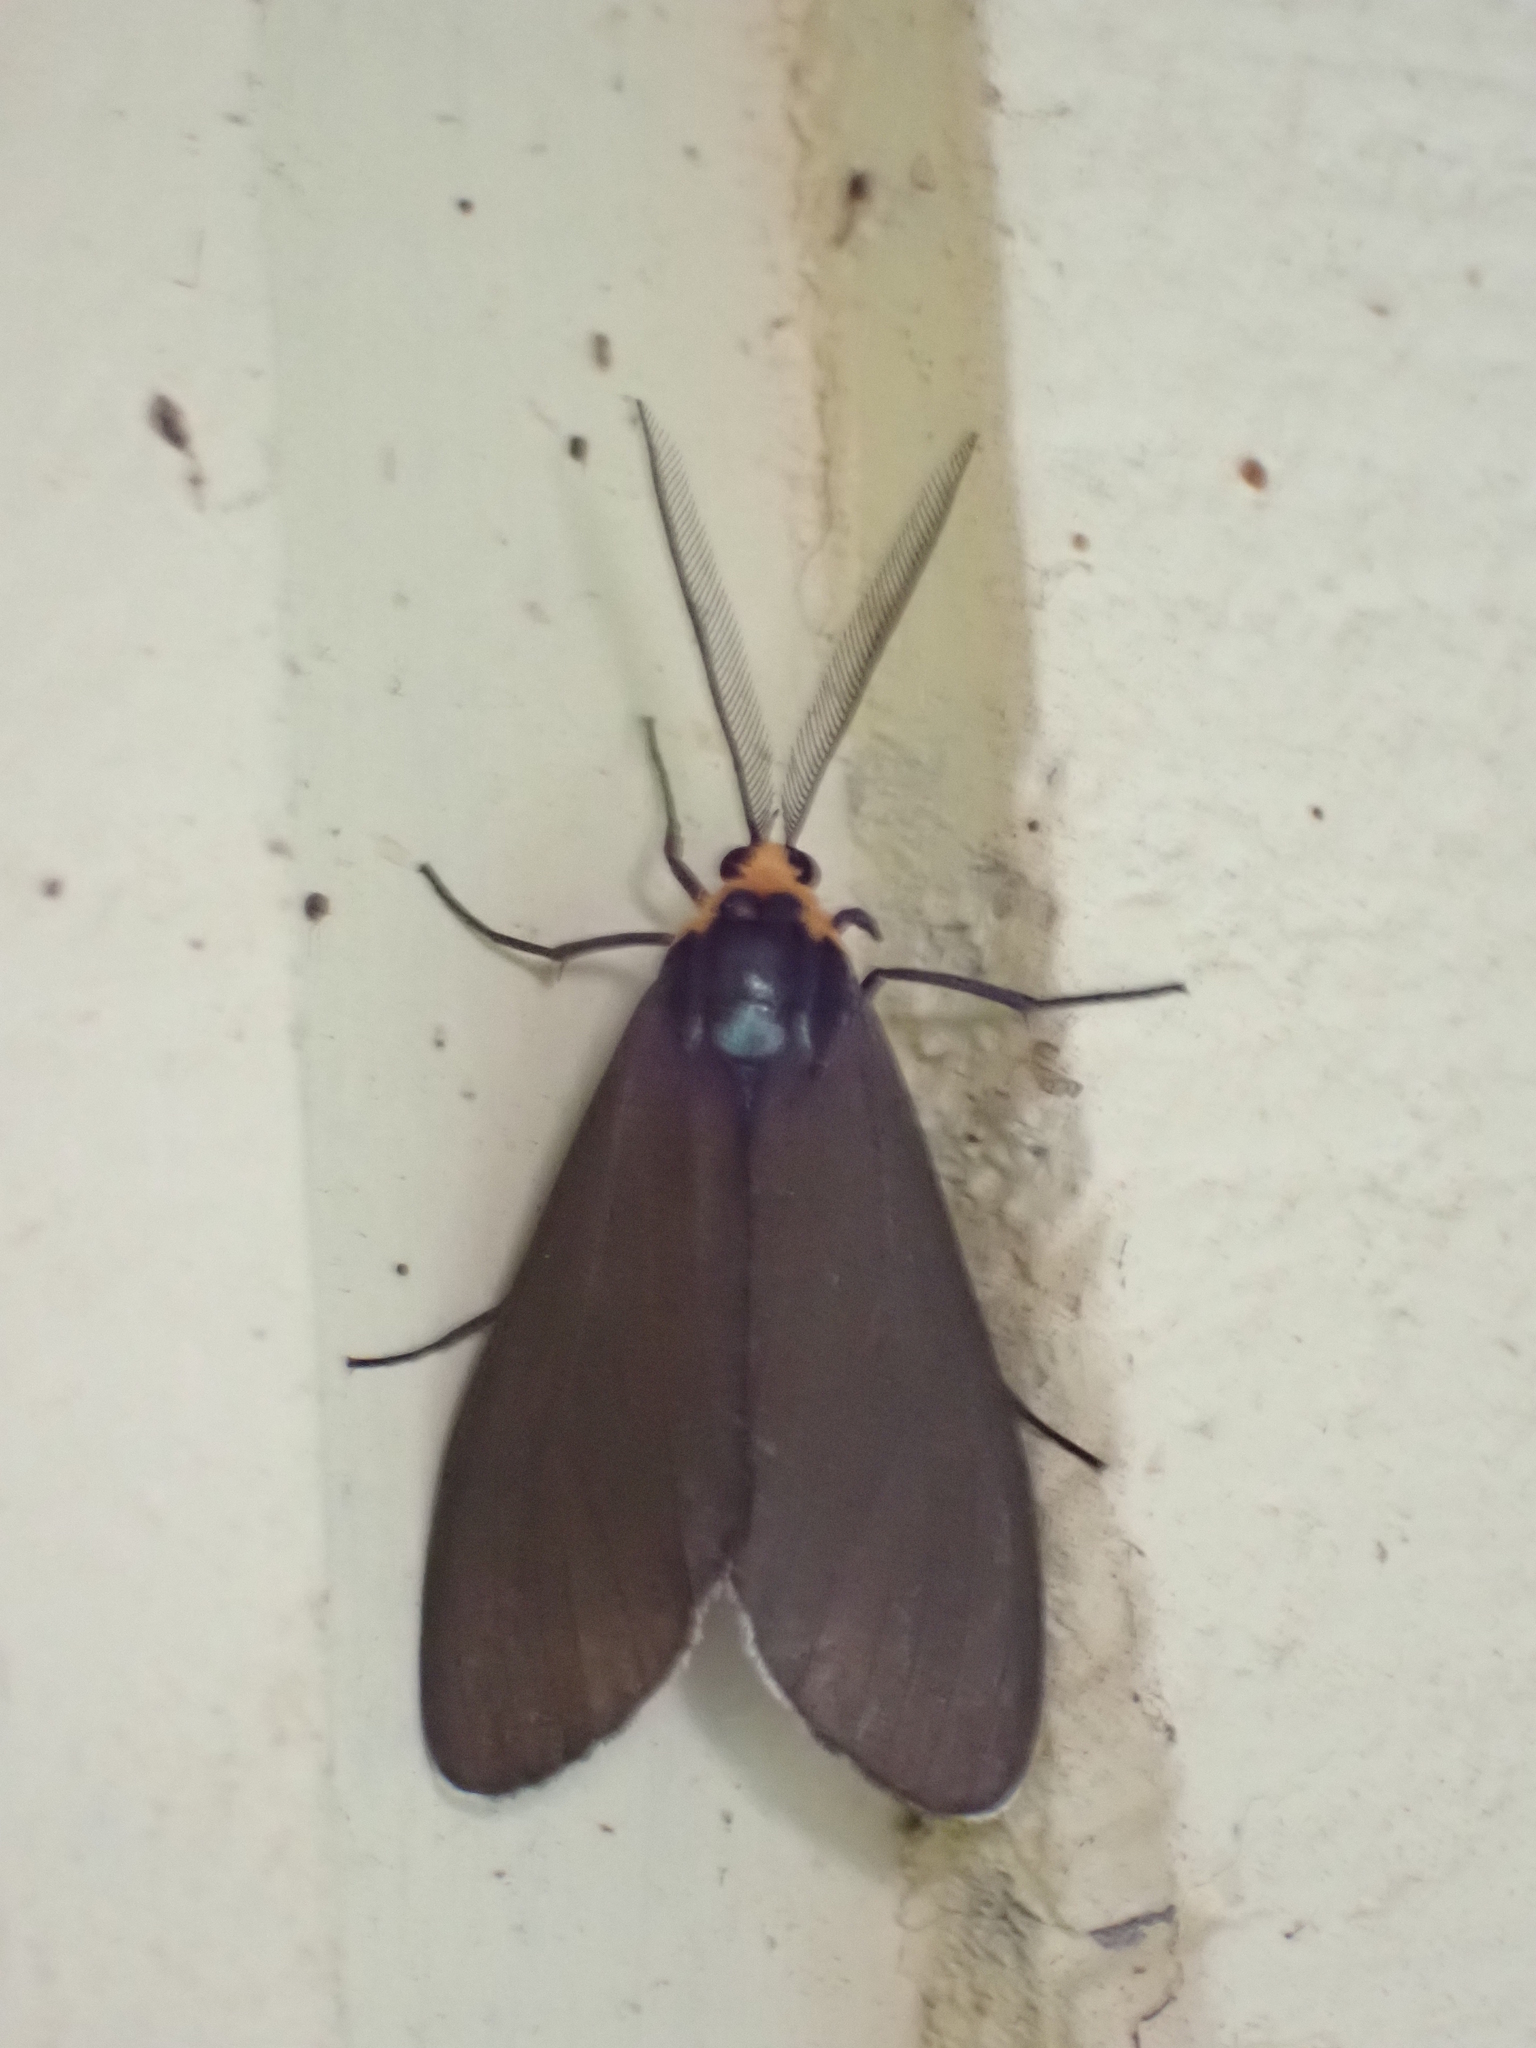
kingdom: Animalia
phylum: Arthropoda
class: Insecta
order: Lepidoptera
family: Erebidae
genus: Ctenucha
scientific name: Ctenucha virginica
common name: Virginia ctenucha moth
